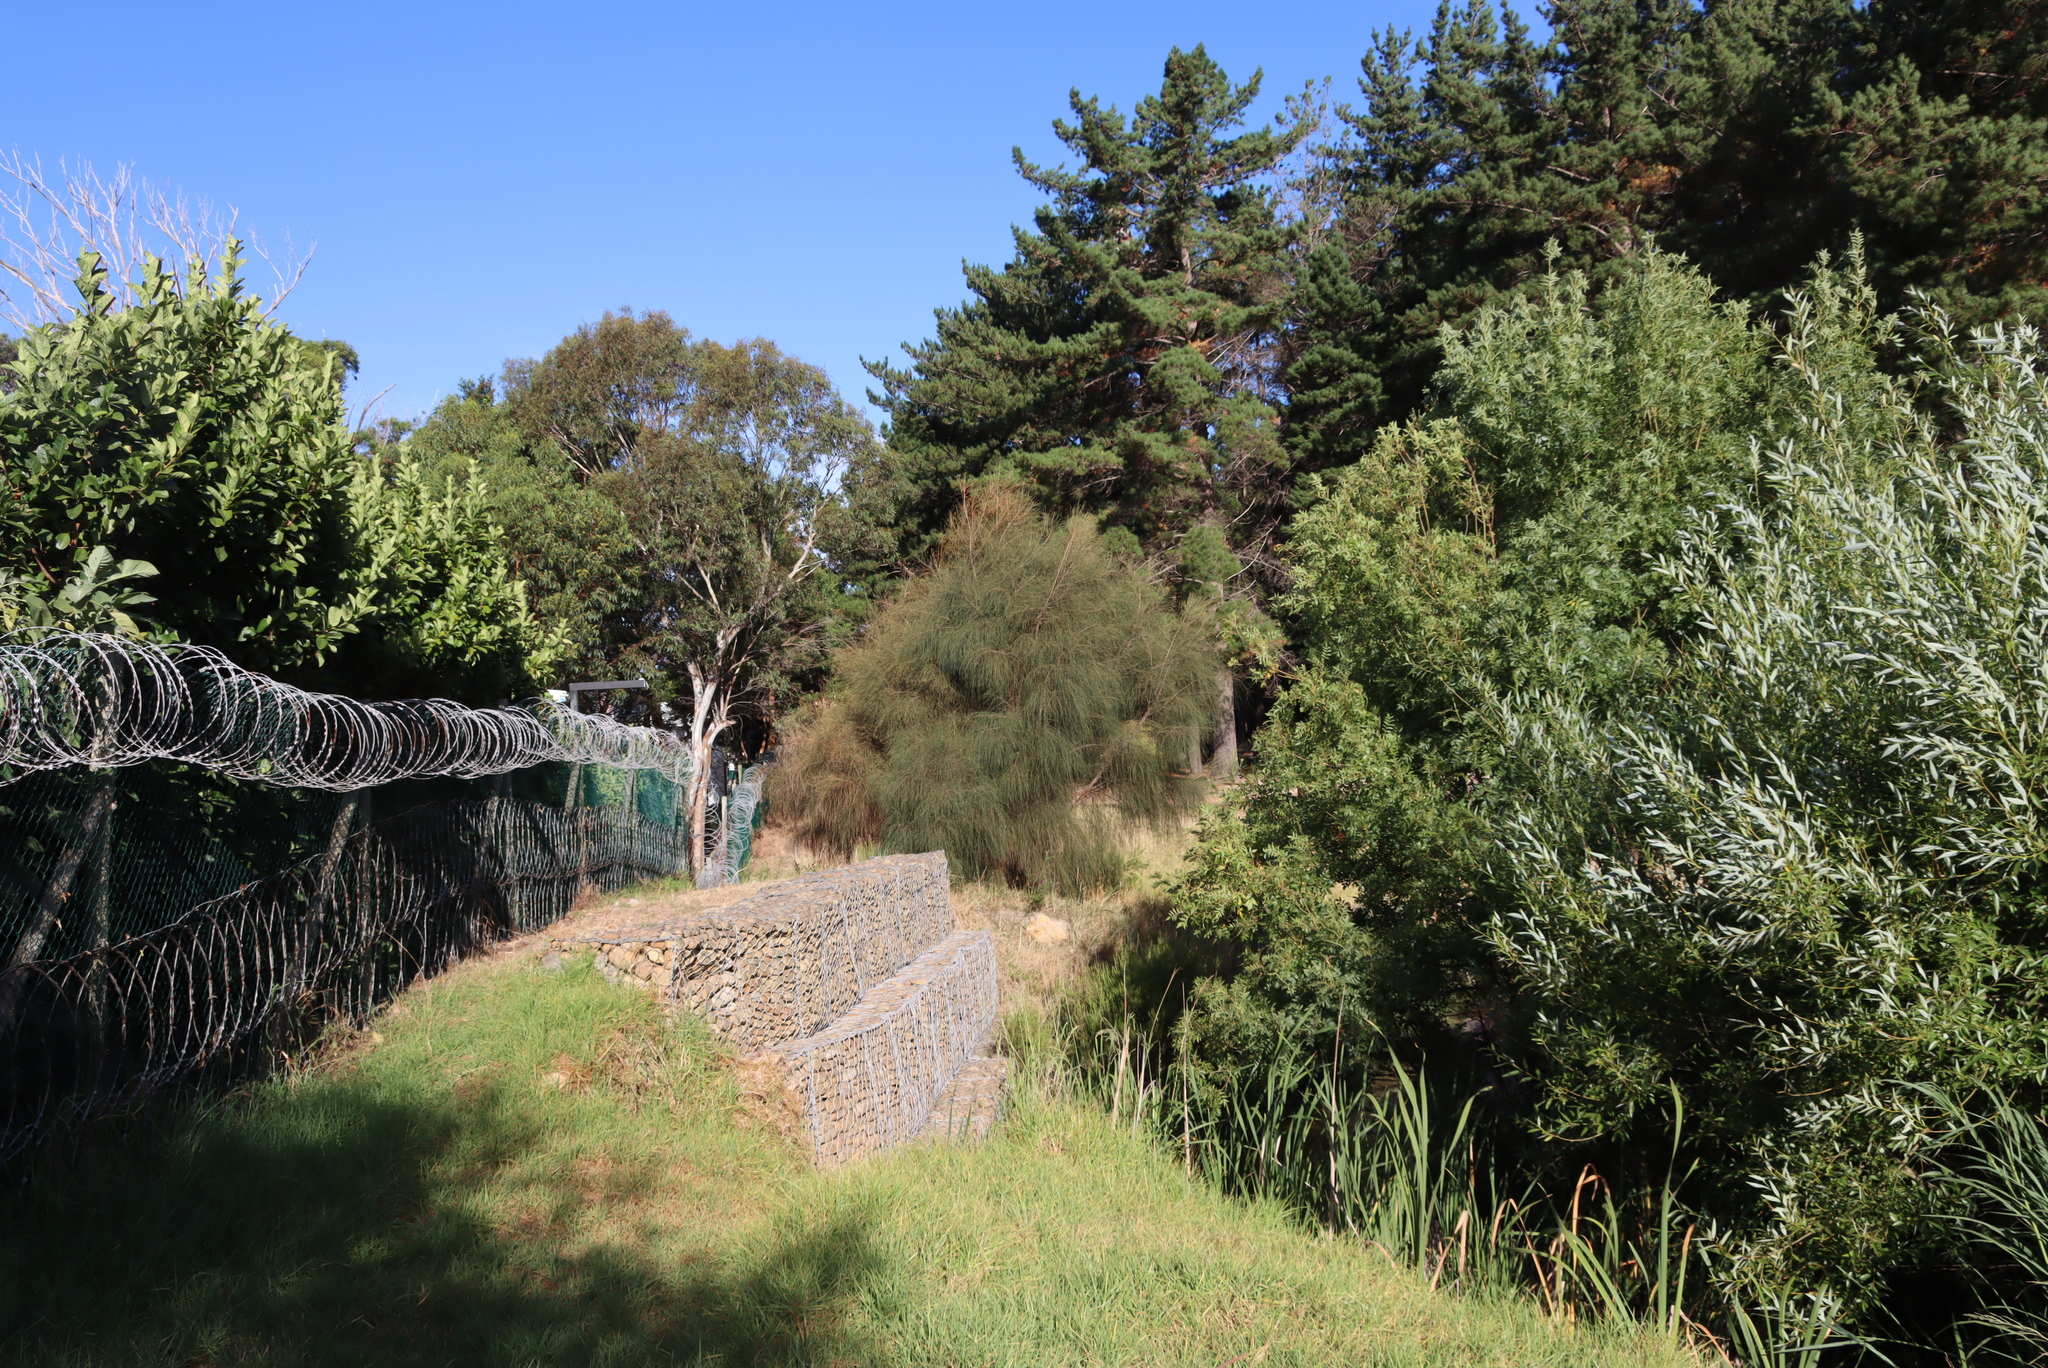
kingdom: Plantae
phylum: Tracheophyta
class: Magnoliopsida
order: Fagales
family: Casuarinaceae
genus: Casuarina
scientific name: Casuarina cunninghamiana
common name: River sheoak
